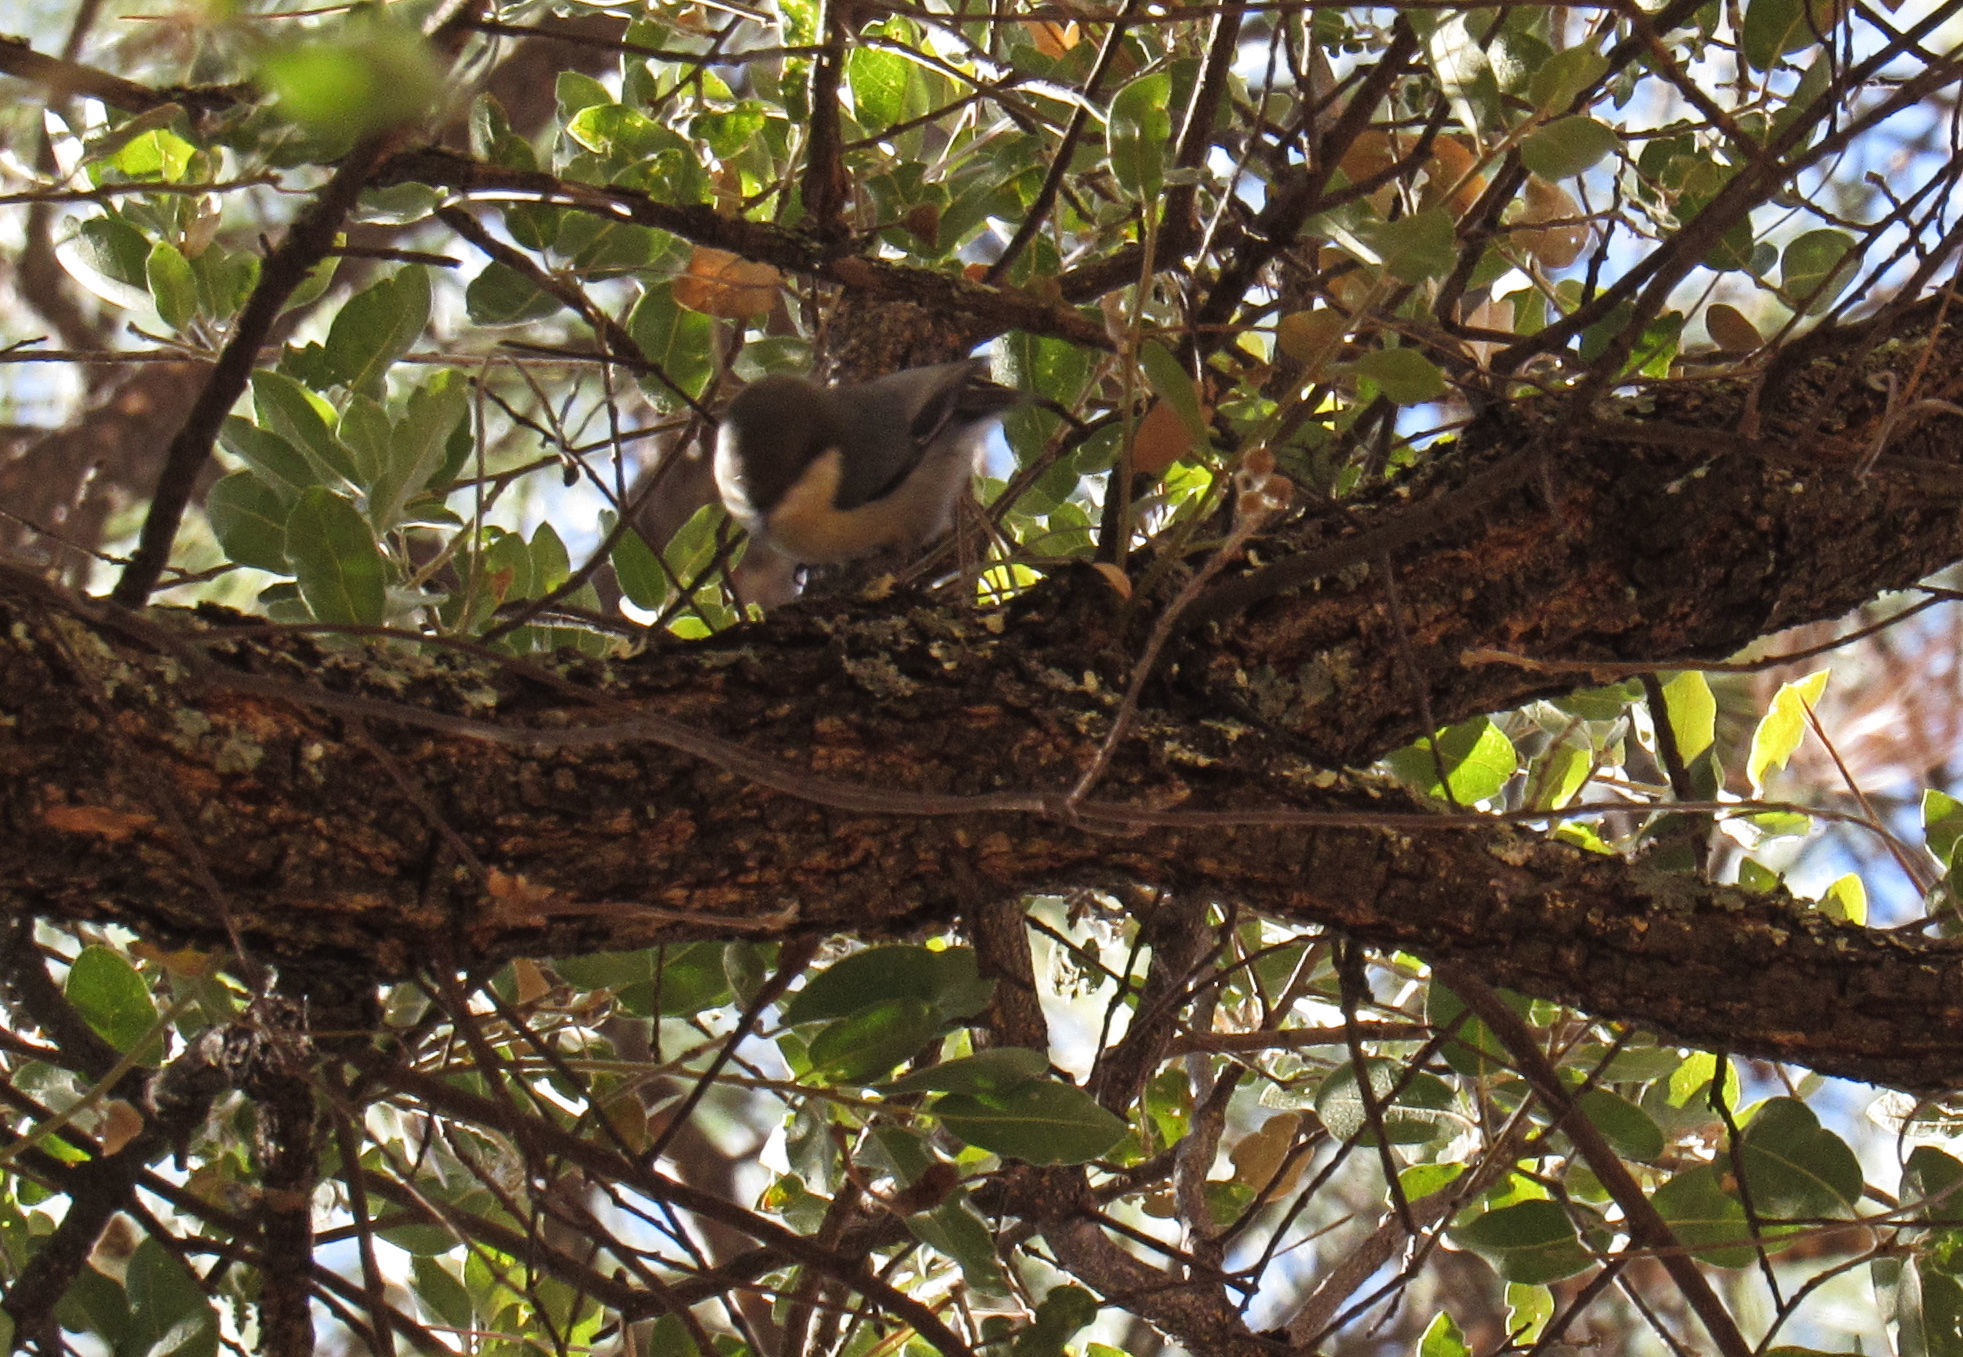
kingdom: Animalia
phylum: Chordata
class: Aves
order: Passeriformes
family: Sittidae
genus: Sitta
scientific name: Sitta pygmaea
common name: Pygmy nuthatch
